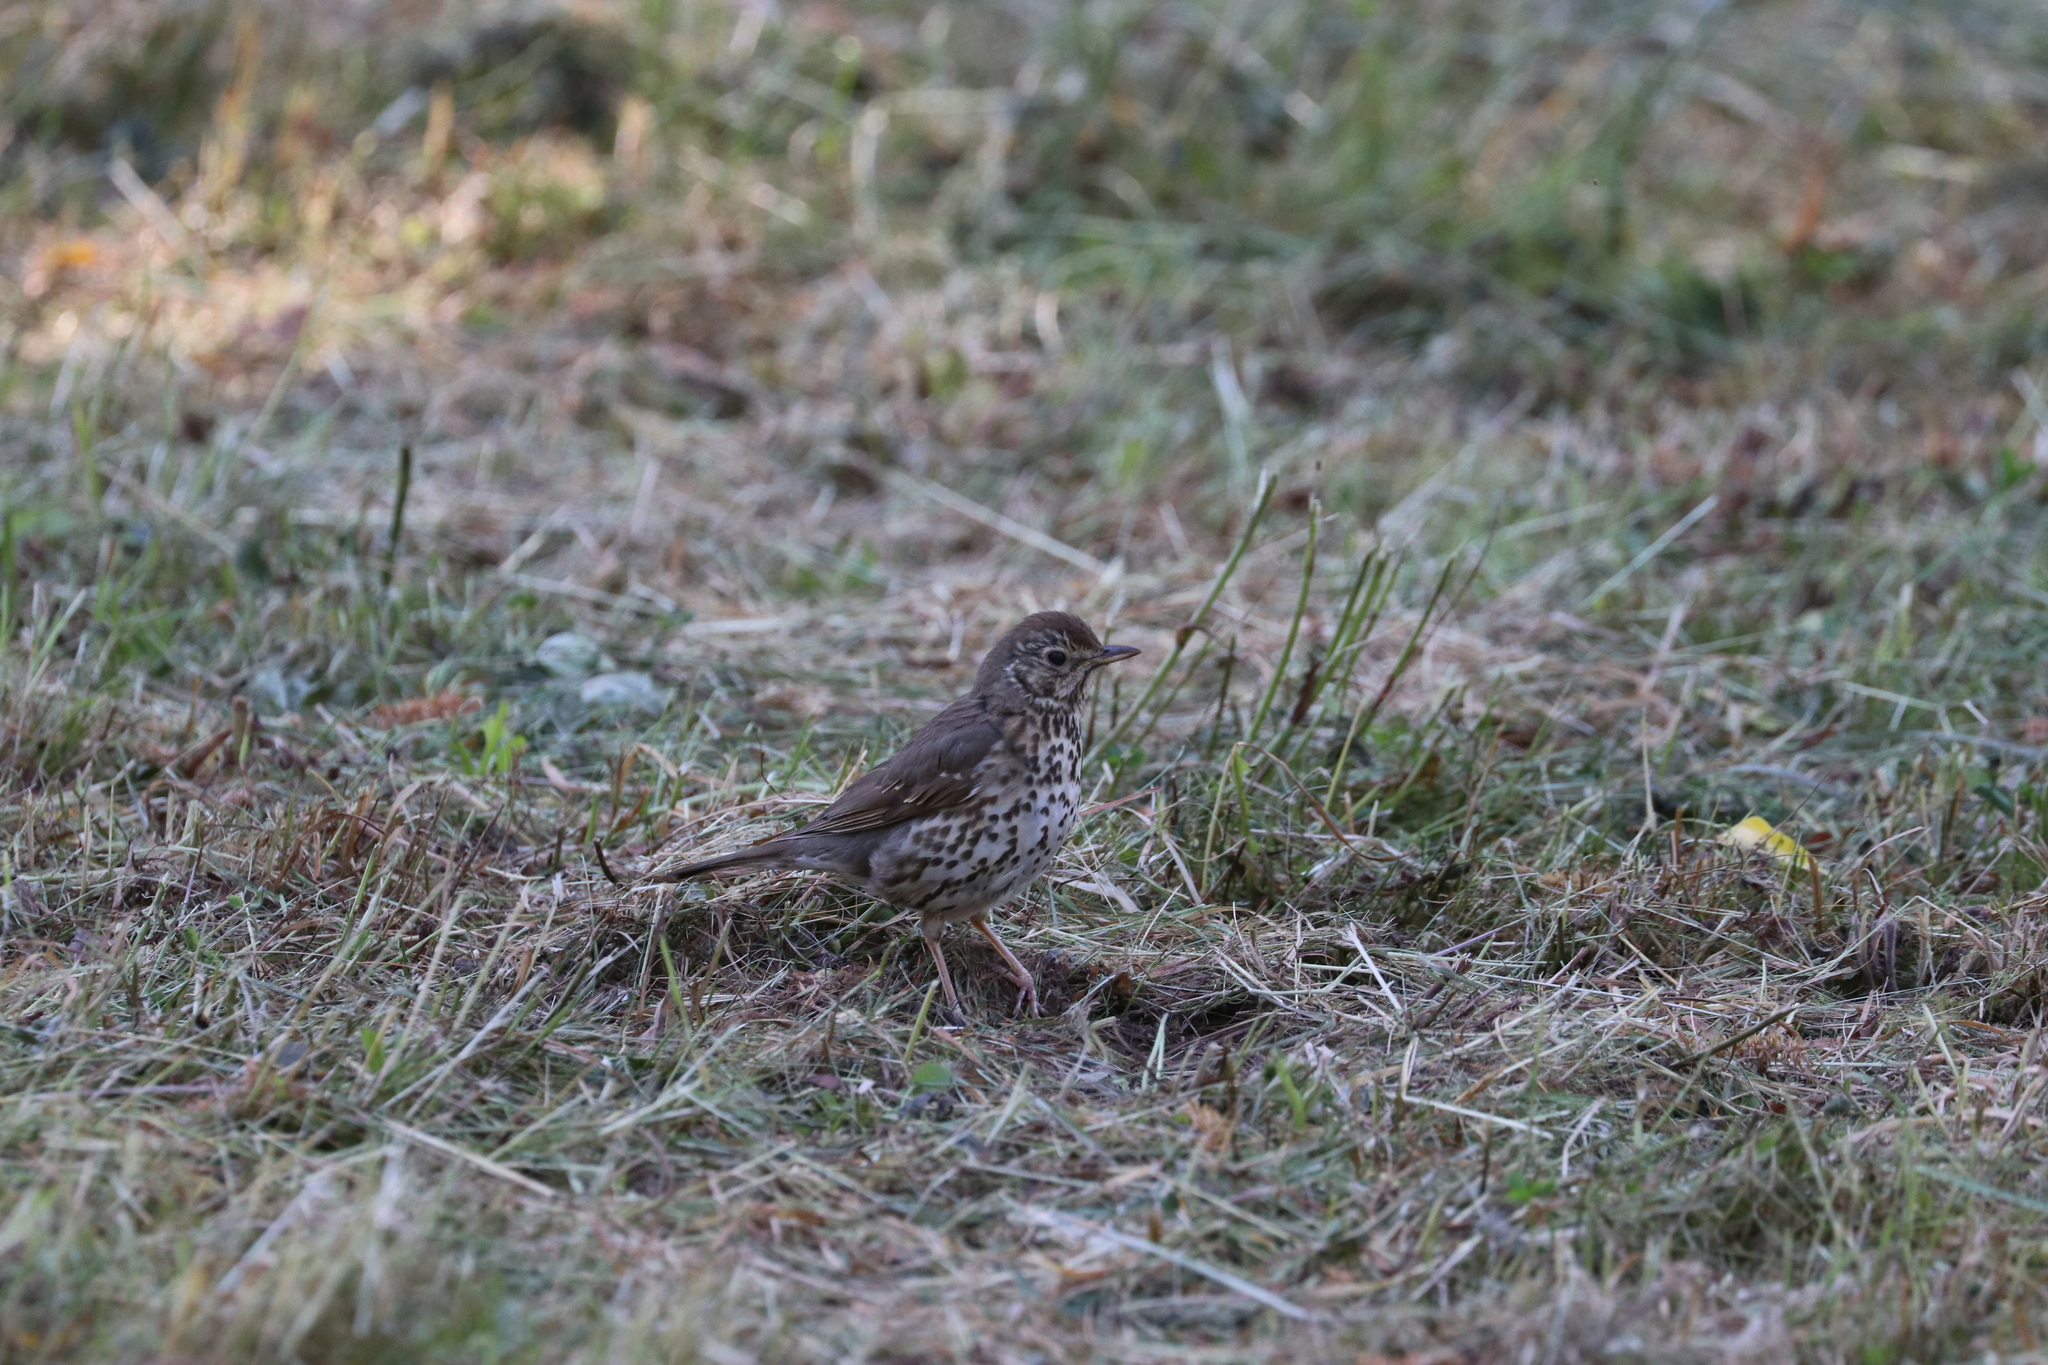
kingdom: Animalia
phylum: Chordata
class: Aves
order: Passeriformes
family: Turdidae
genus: Turdus
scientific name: Turdus philomelos
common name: Song thrush
